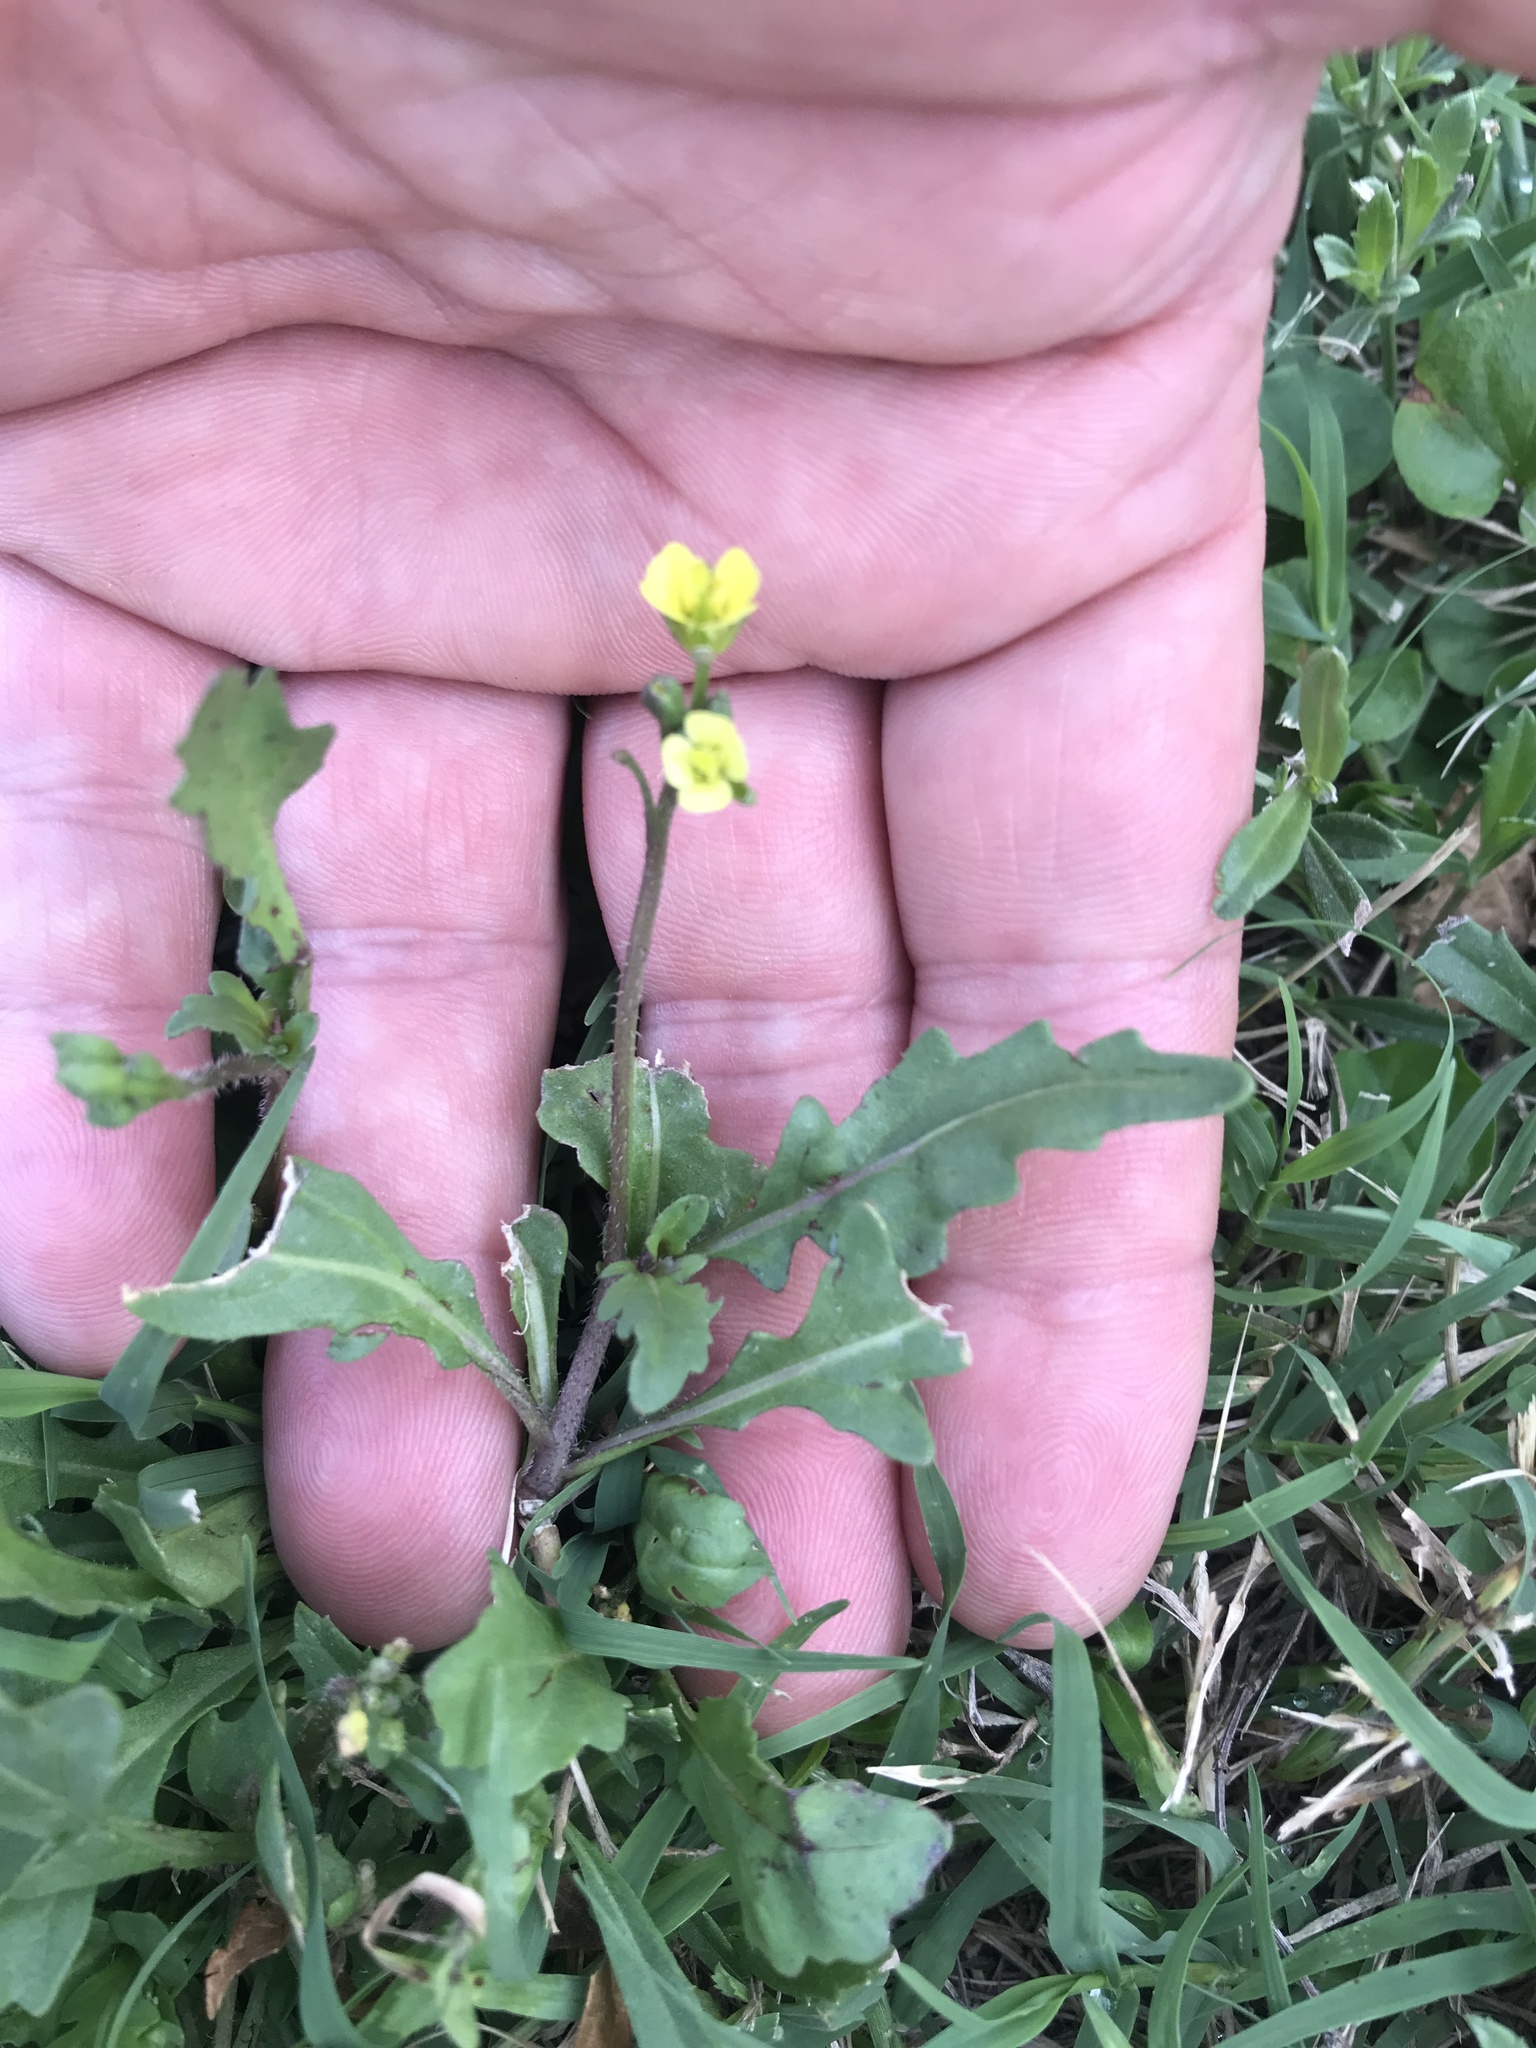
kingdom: Plantae
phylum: Tracheophyta
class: Magnoliopsida
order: Brassicales
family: Brassicaceae
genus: Diplotaxis
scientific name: Diplotaxis muralis
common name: Annual wall-rocket
